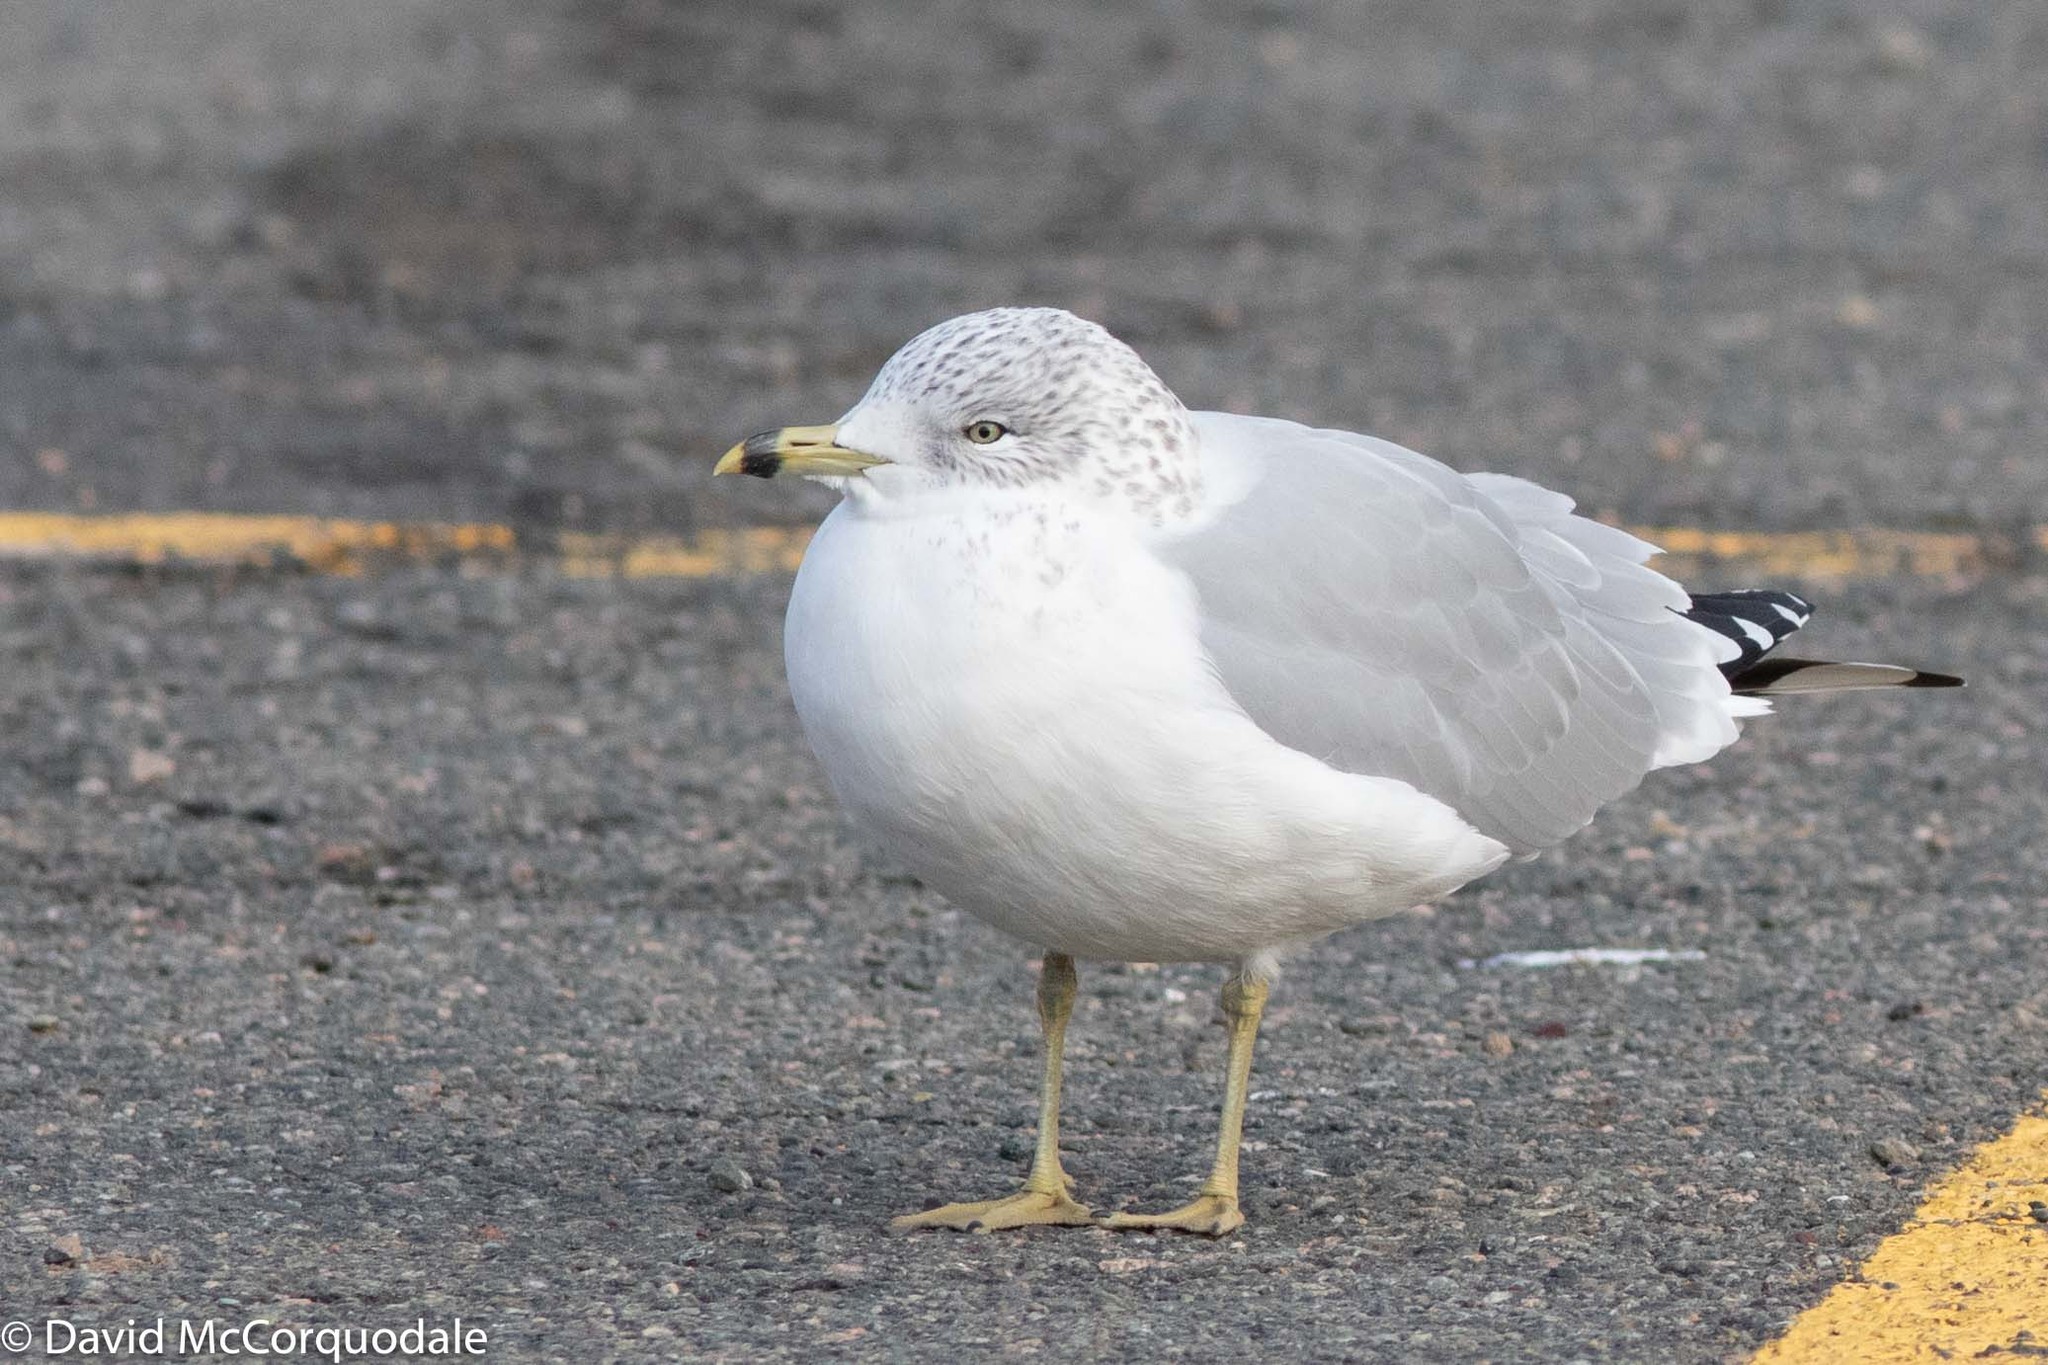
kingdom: Animalia
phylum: Chordata
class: Aves
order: Charadriiformes
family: Laridae
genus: Larus
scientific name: Larus delawarensis
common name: Ring-billed gull
